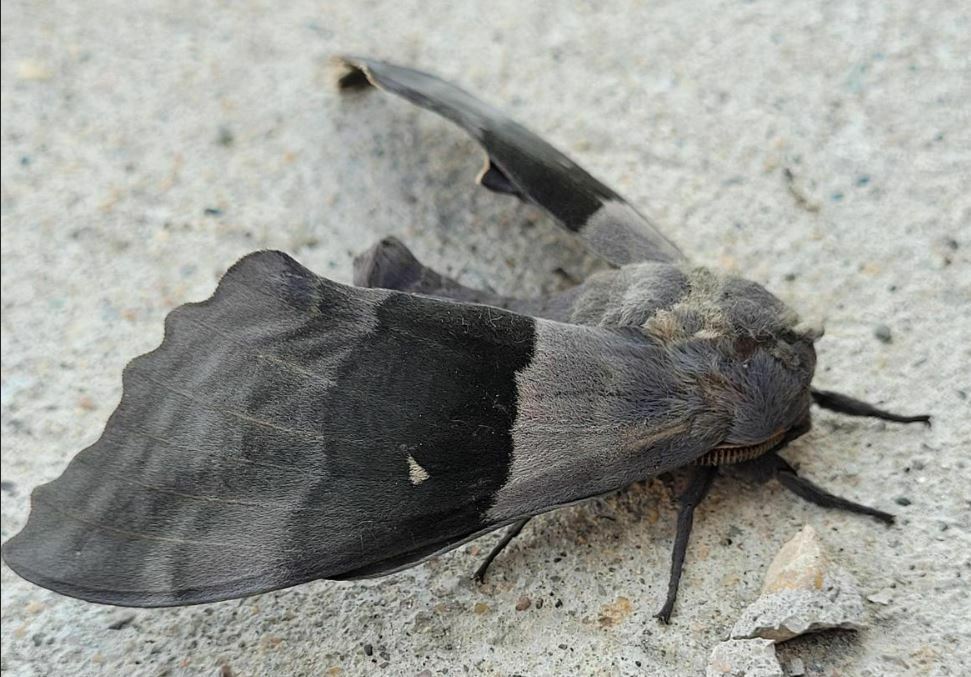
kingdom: Animalia
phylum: Arthropoda
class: Insecta
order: Lepidoptera
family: Sphingidae
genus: Pachysphinx
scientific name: Pachysphinx modesta
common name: Big poplar sphinx
